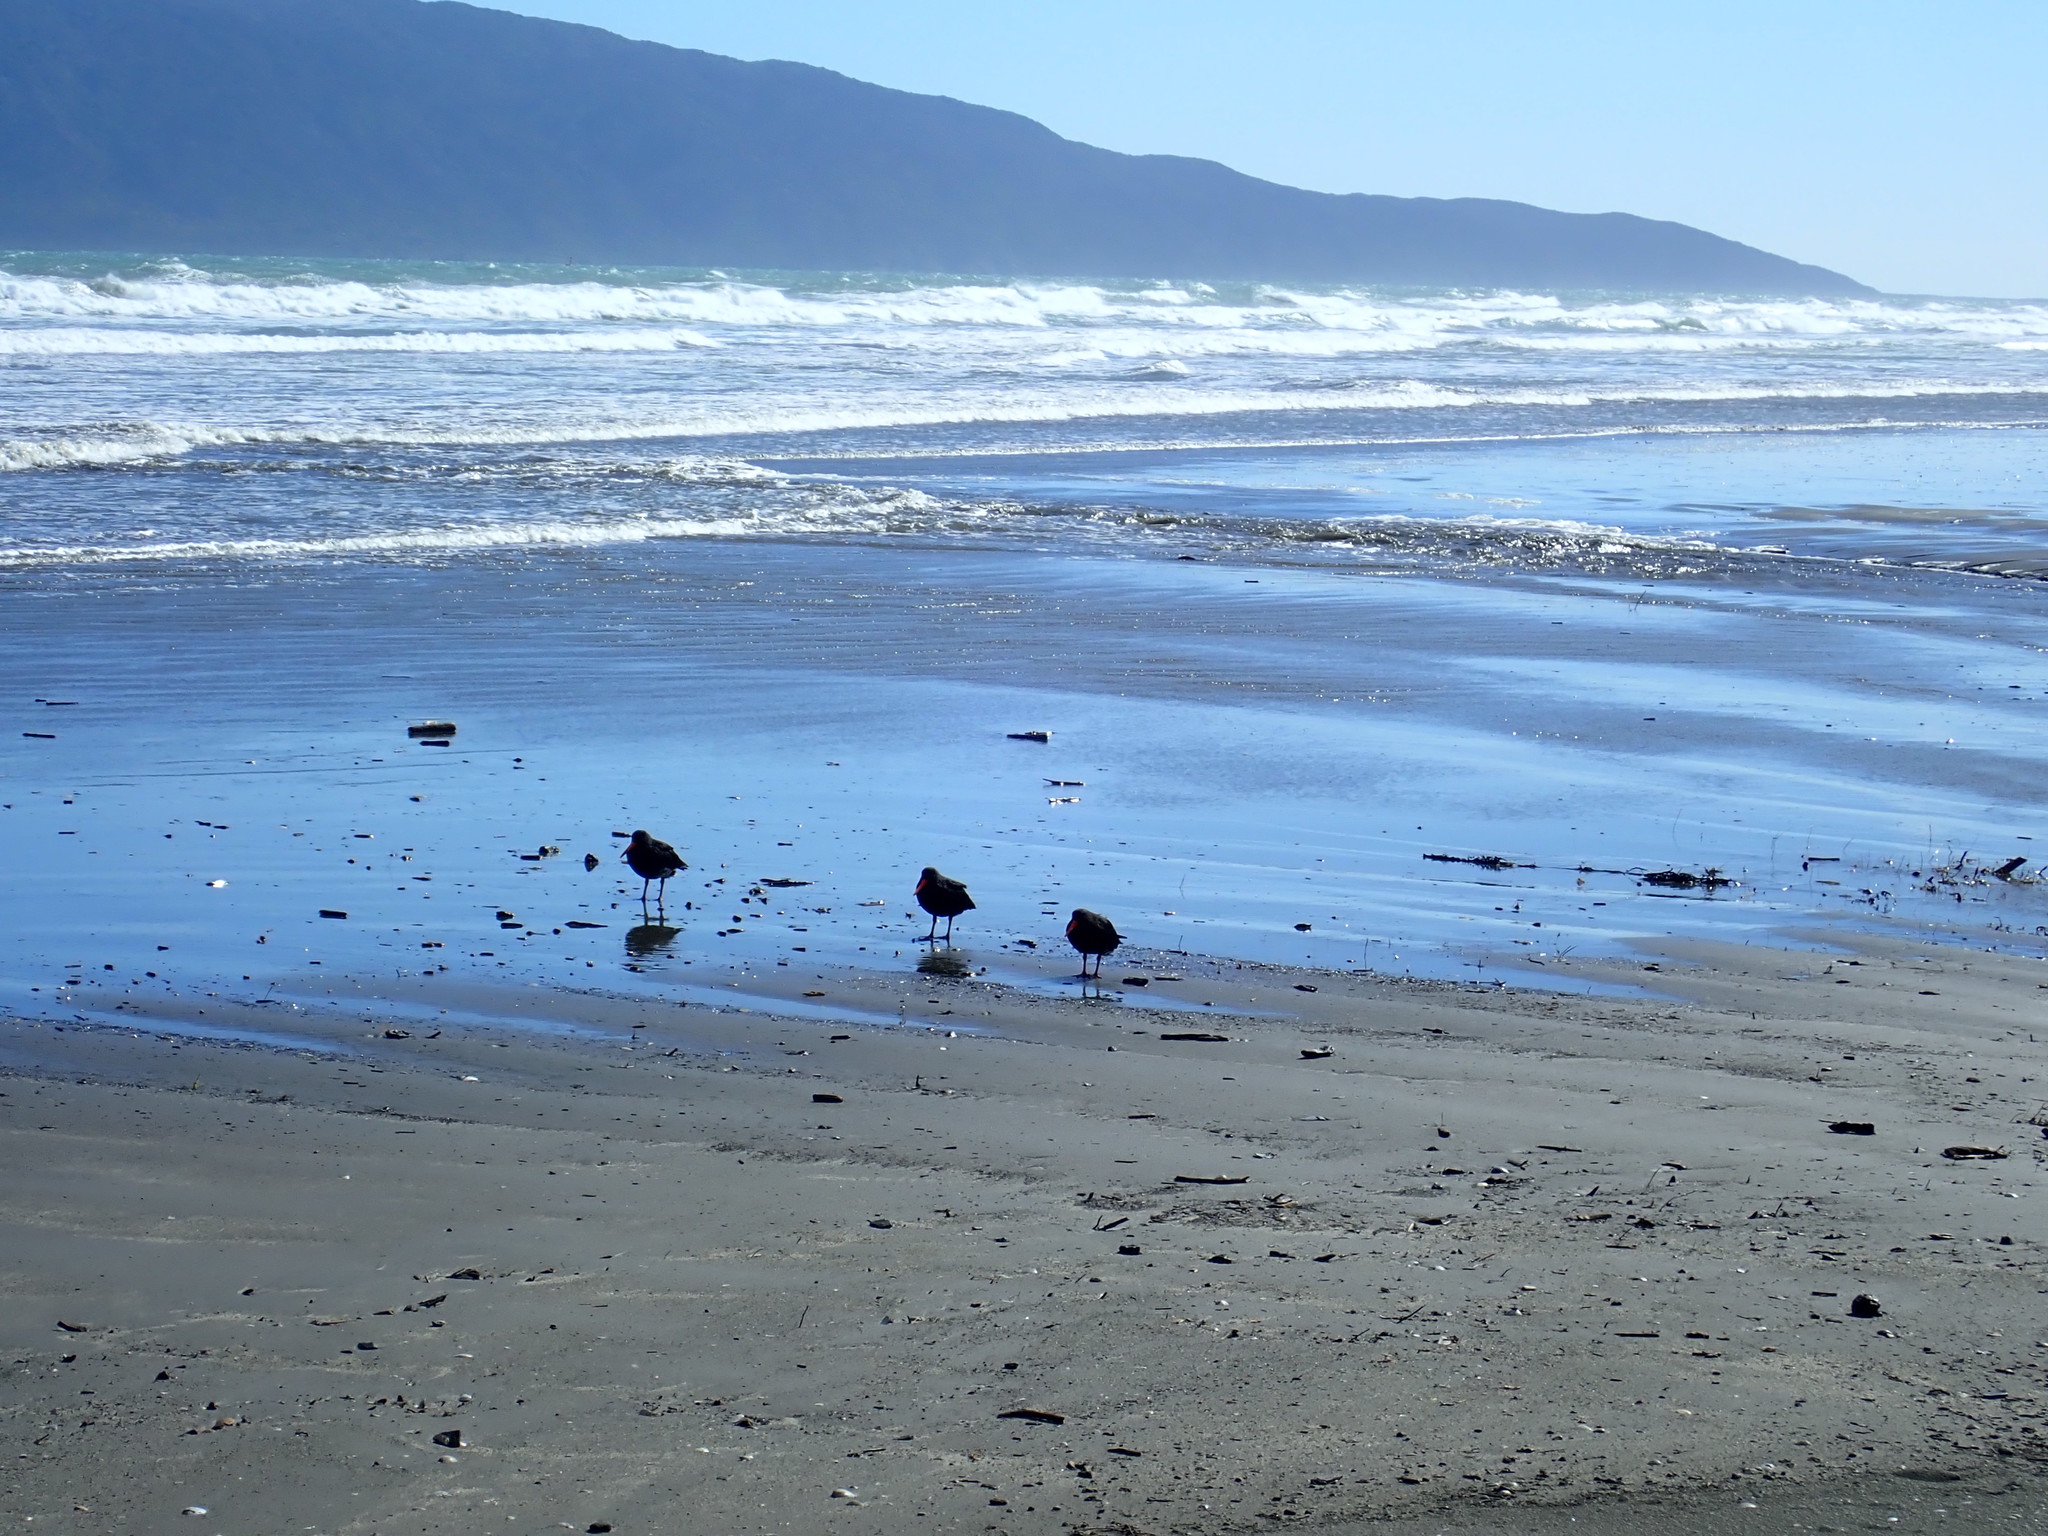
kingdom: Animalia
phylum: Chordata
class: Aves
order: Charadriiformes
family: Haematopodidae
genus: Haematopus
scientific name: Haematopus unicolor
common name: Variable oystercatcher
